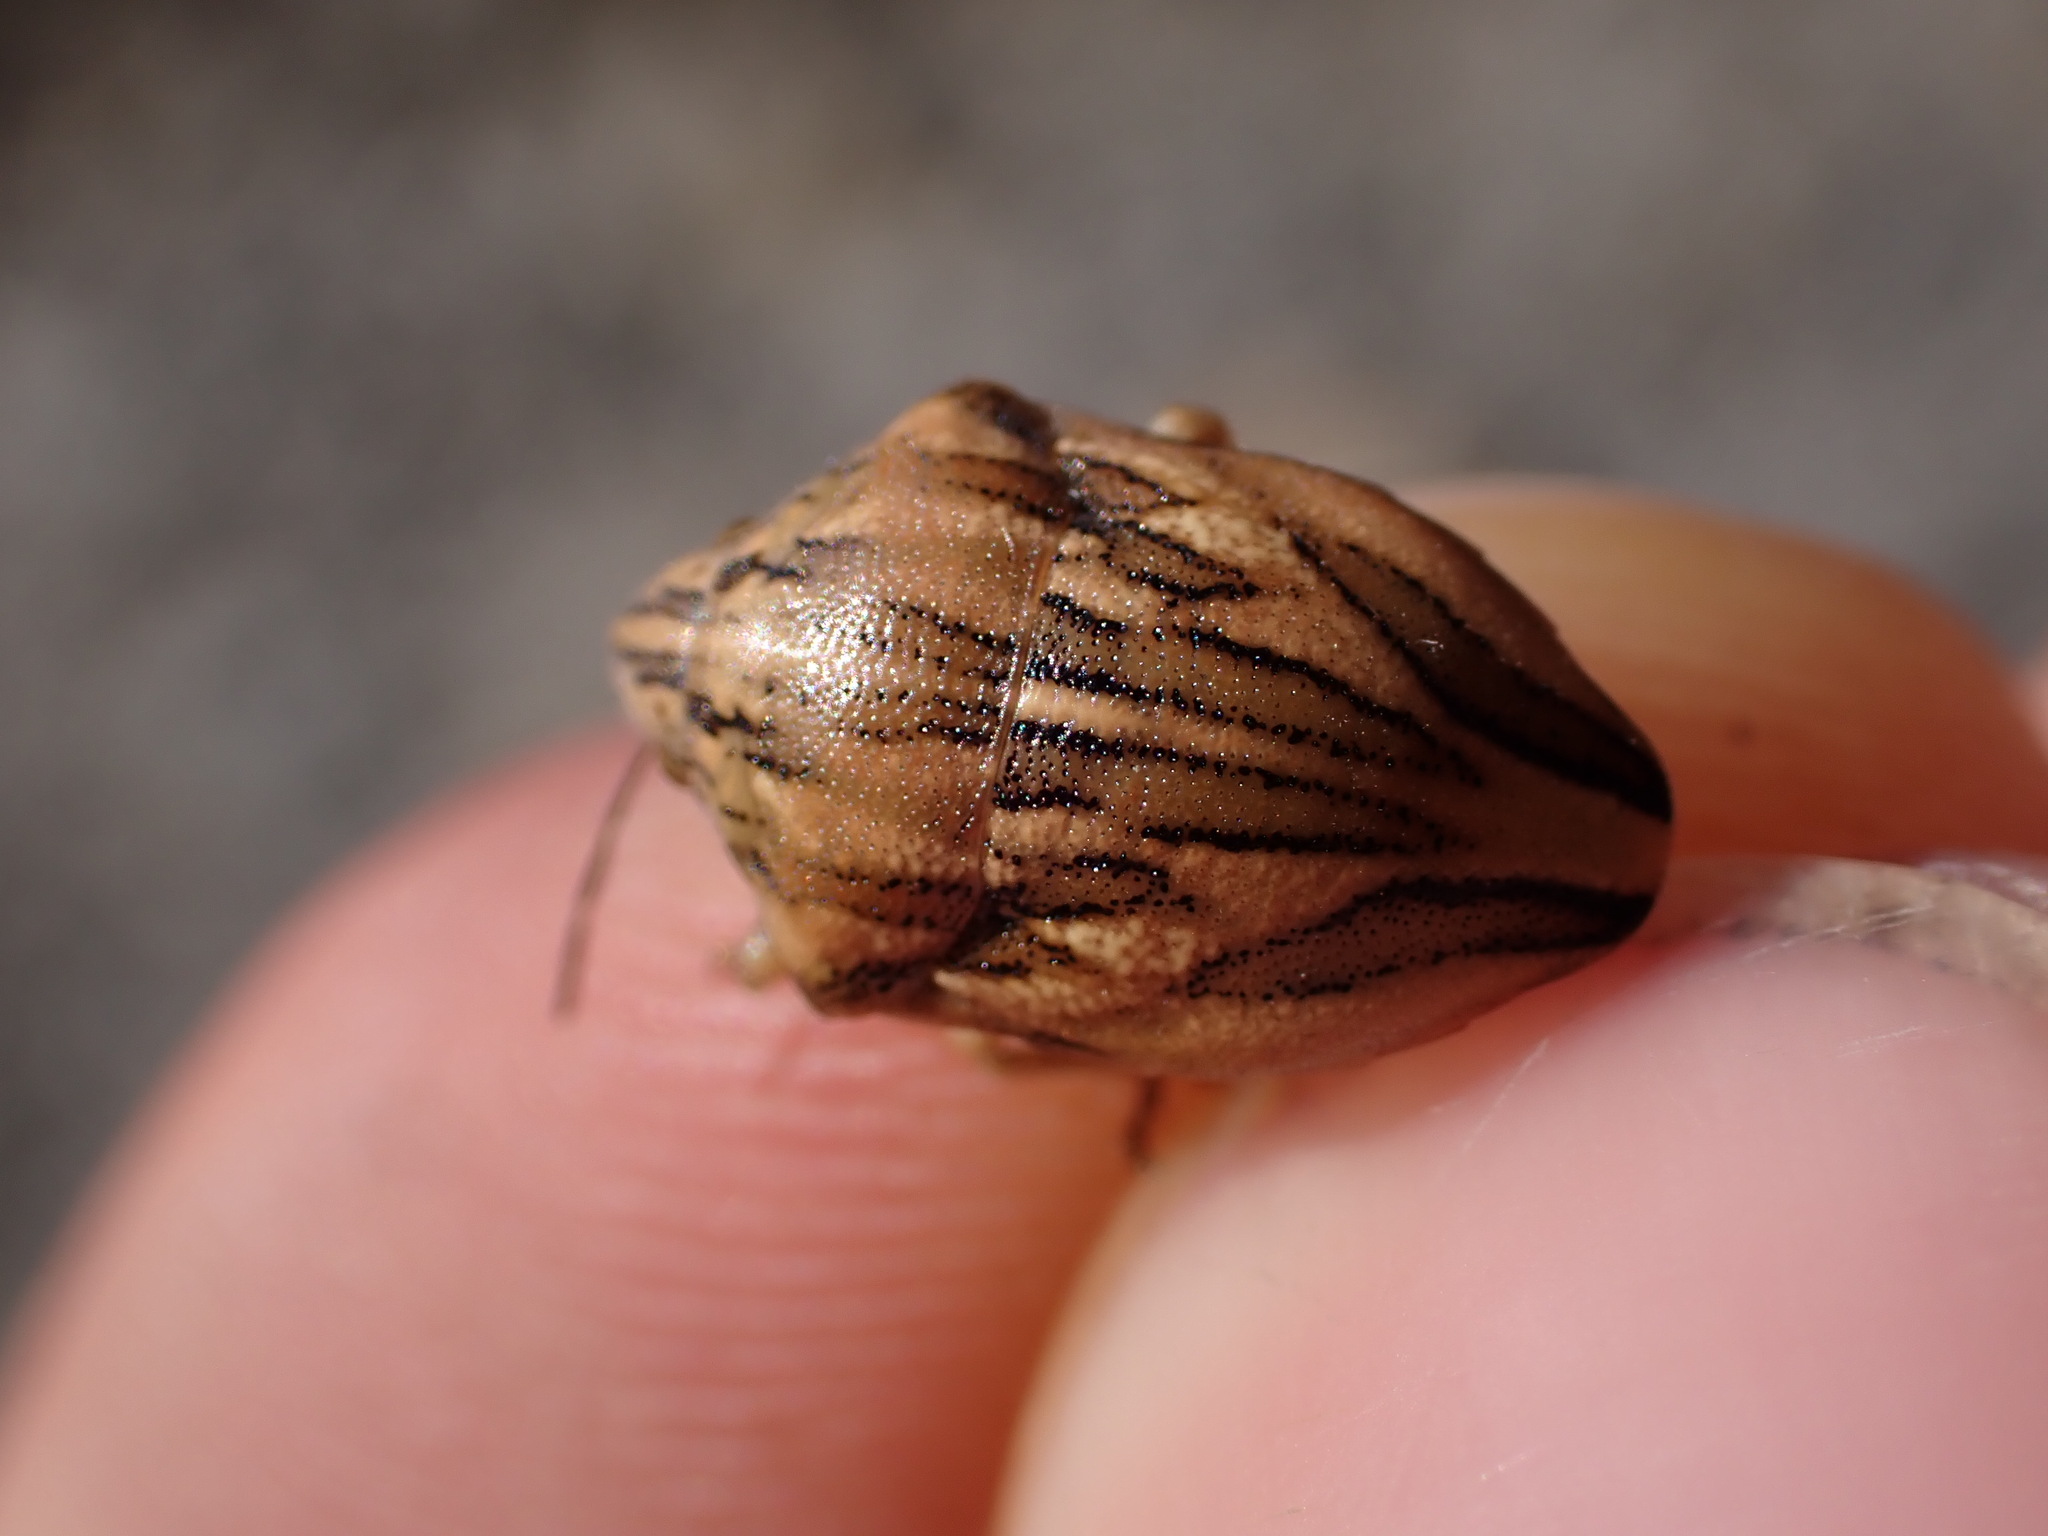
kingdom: Animalia
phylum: Arthropoda
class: Insecta
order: Hemiptera
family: Scutelleridae
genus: Odontotarsus
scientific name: Odontotarsus purpureolineatus
